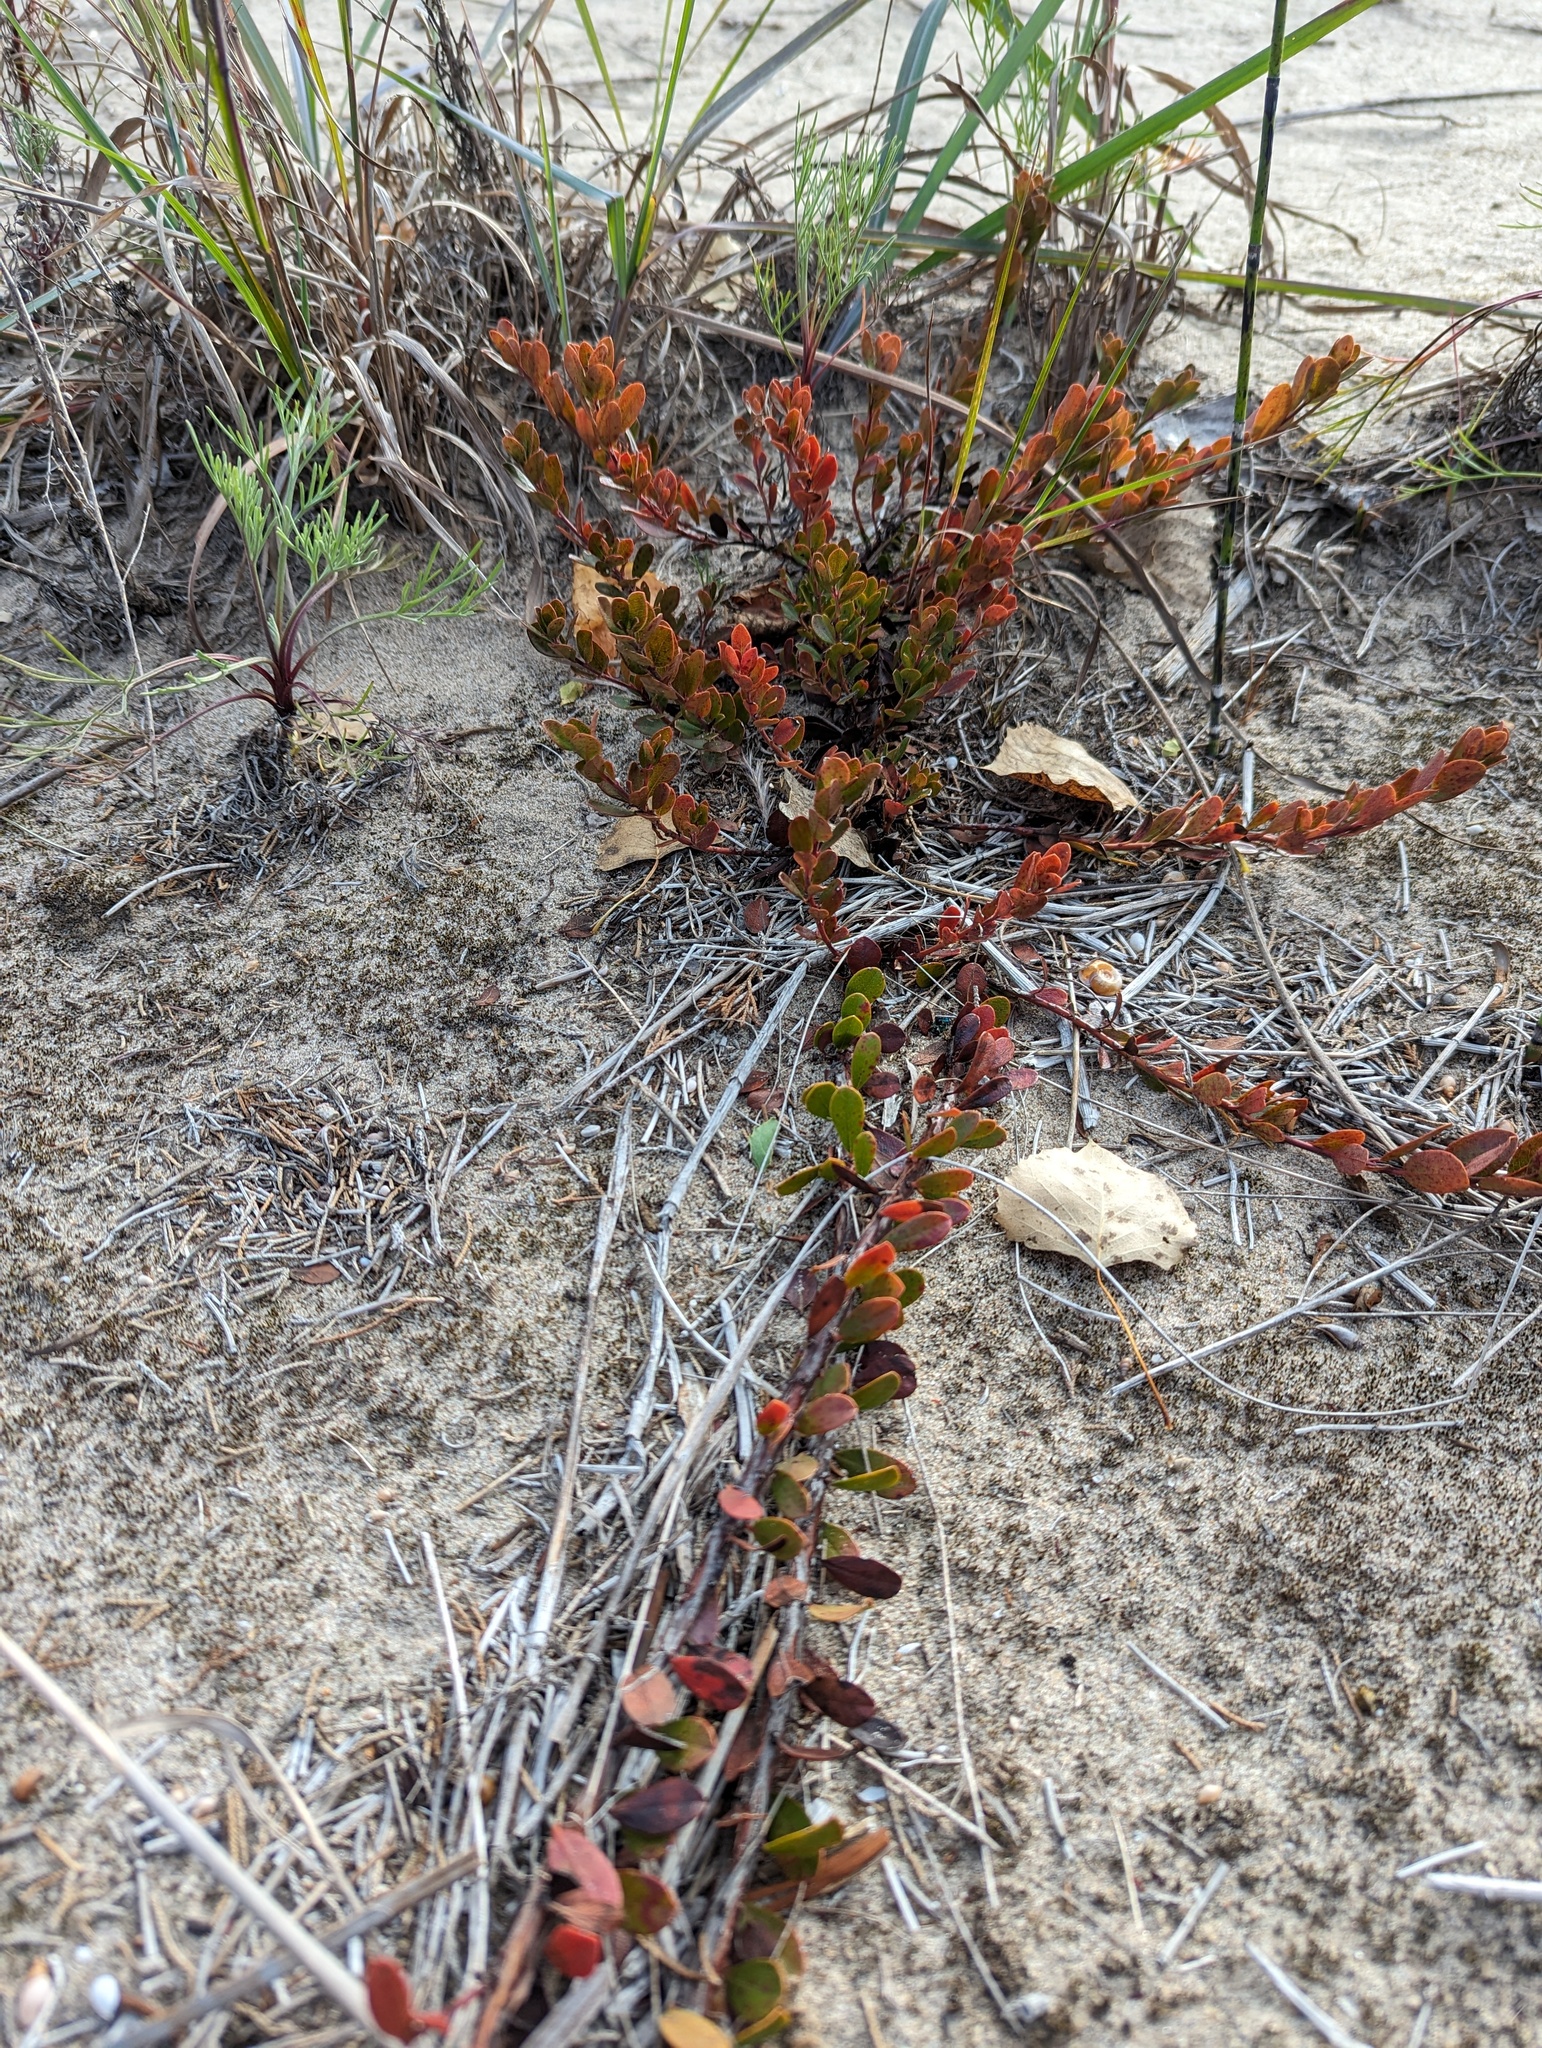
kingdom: Plantae
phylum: Tracheophyta
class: Magnoliopsida
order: Ericales
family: Ericaceae
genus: Arctostaphylos
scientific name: Arctostaphylos uva-ursi
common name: Bearberry
